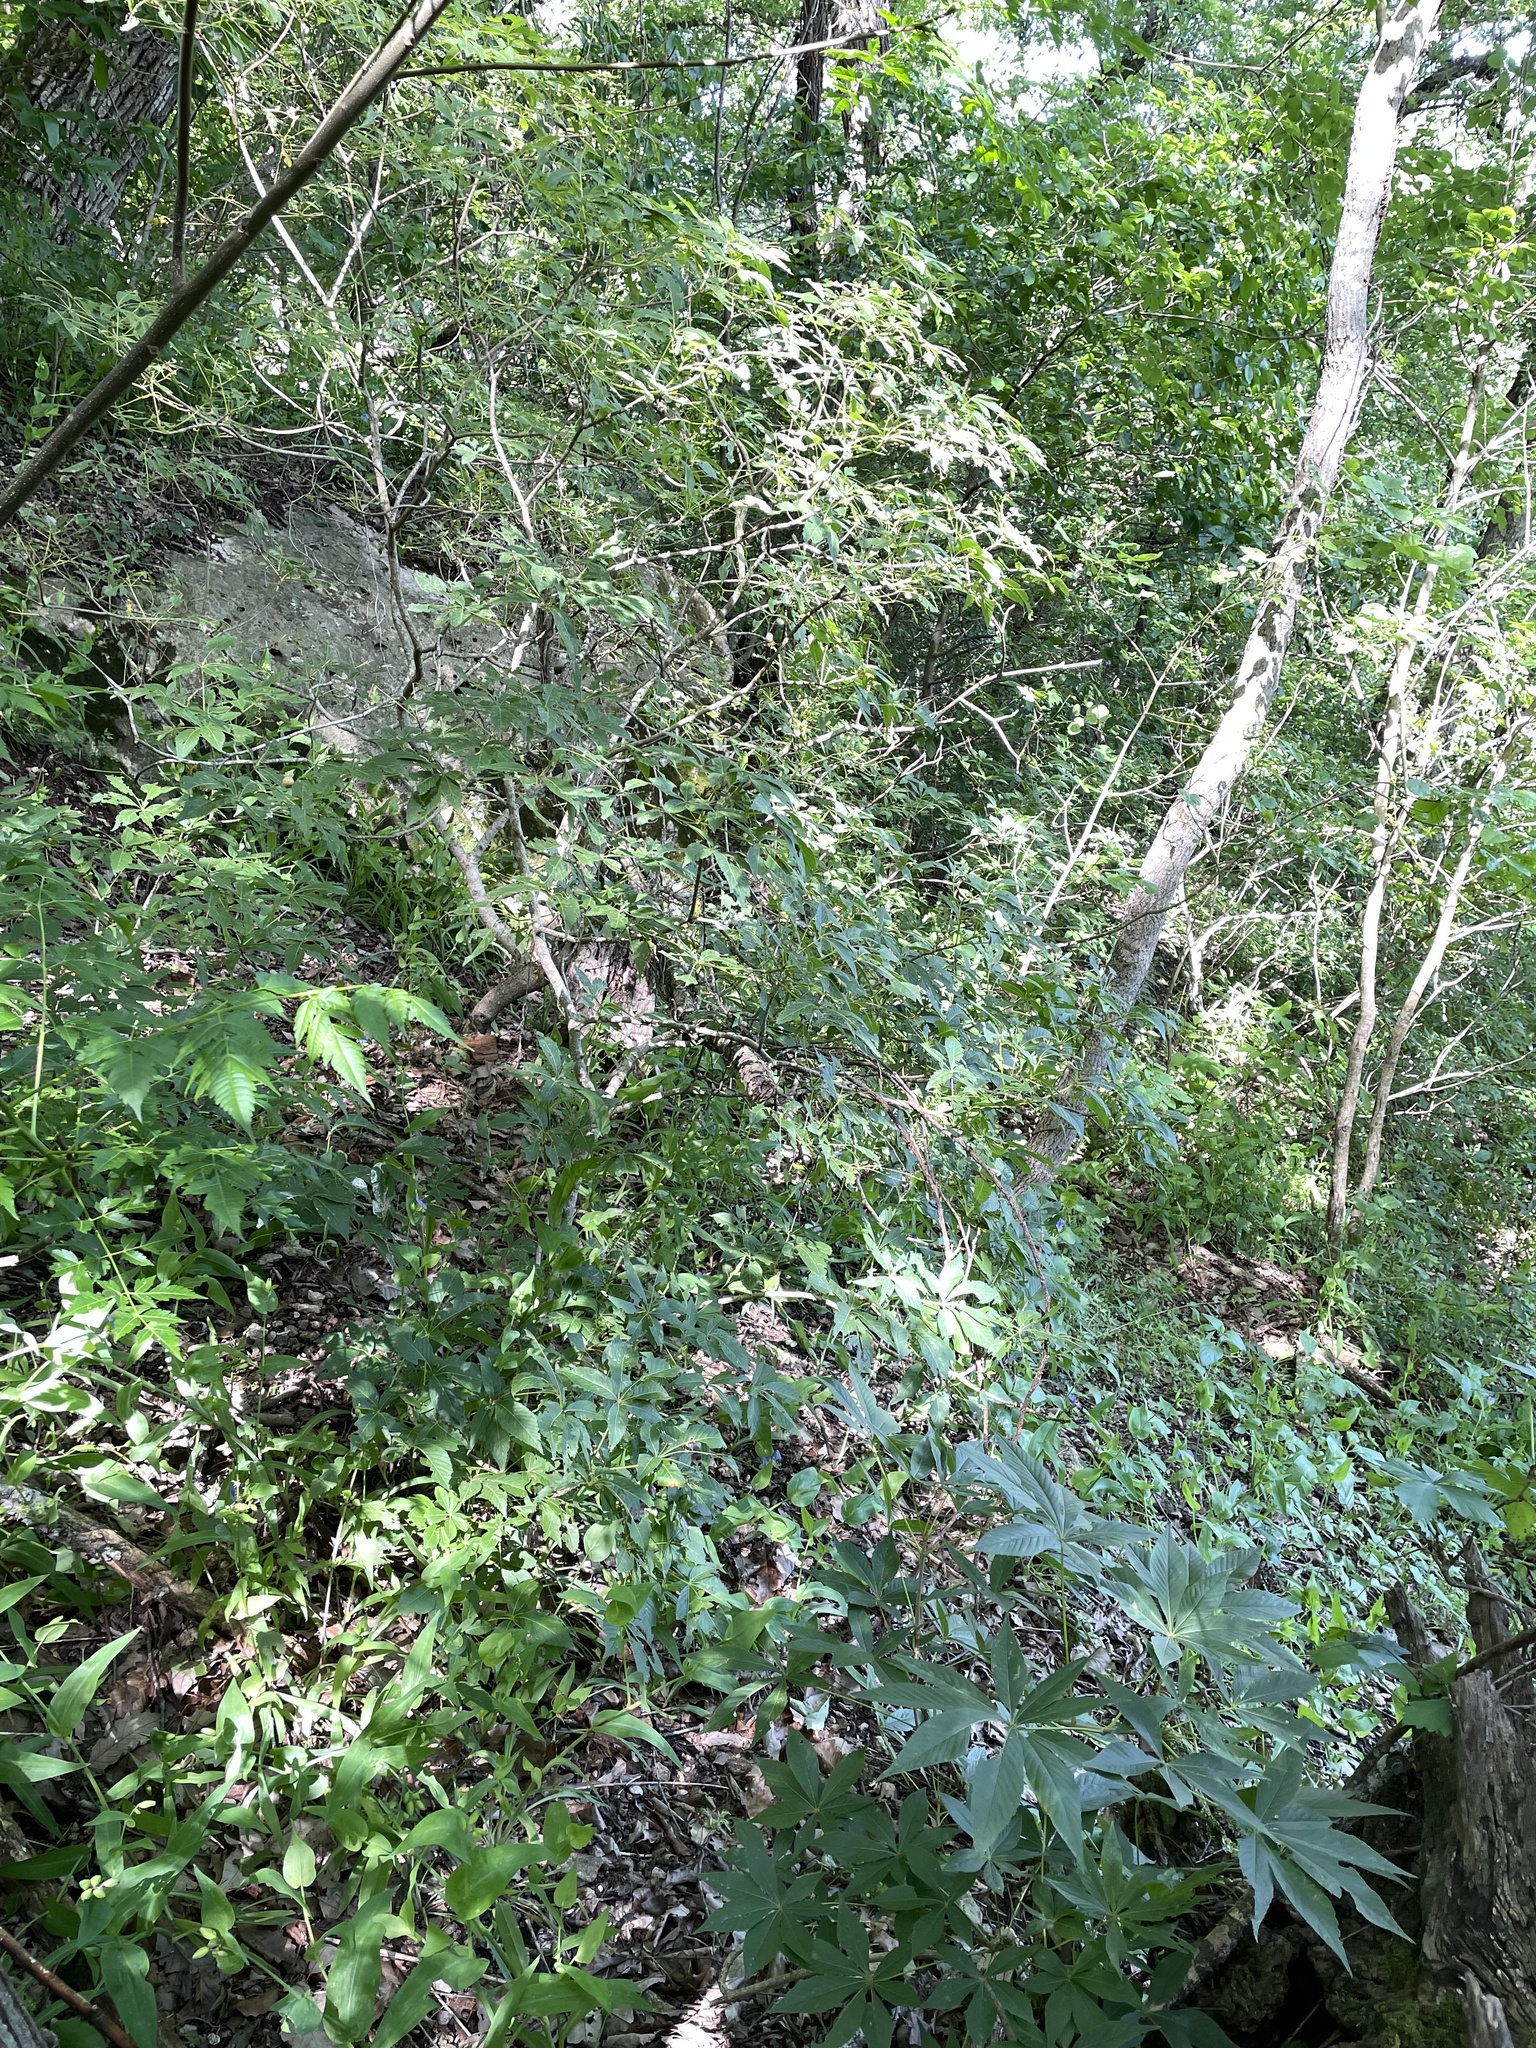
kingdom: Plantae
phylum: Tracheophyta
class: Magnoliopsida
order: Sapindales
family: Sapindaceae
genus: Aesculus
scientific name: Aesculus glabra
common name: Ohio buckeye
